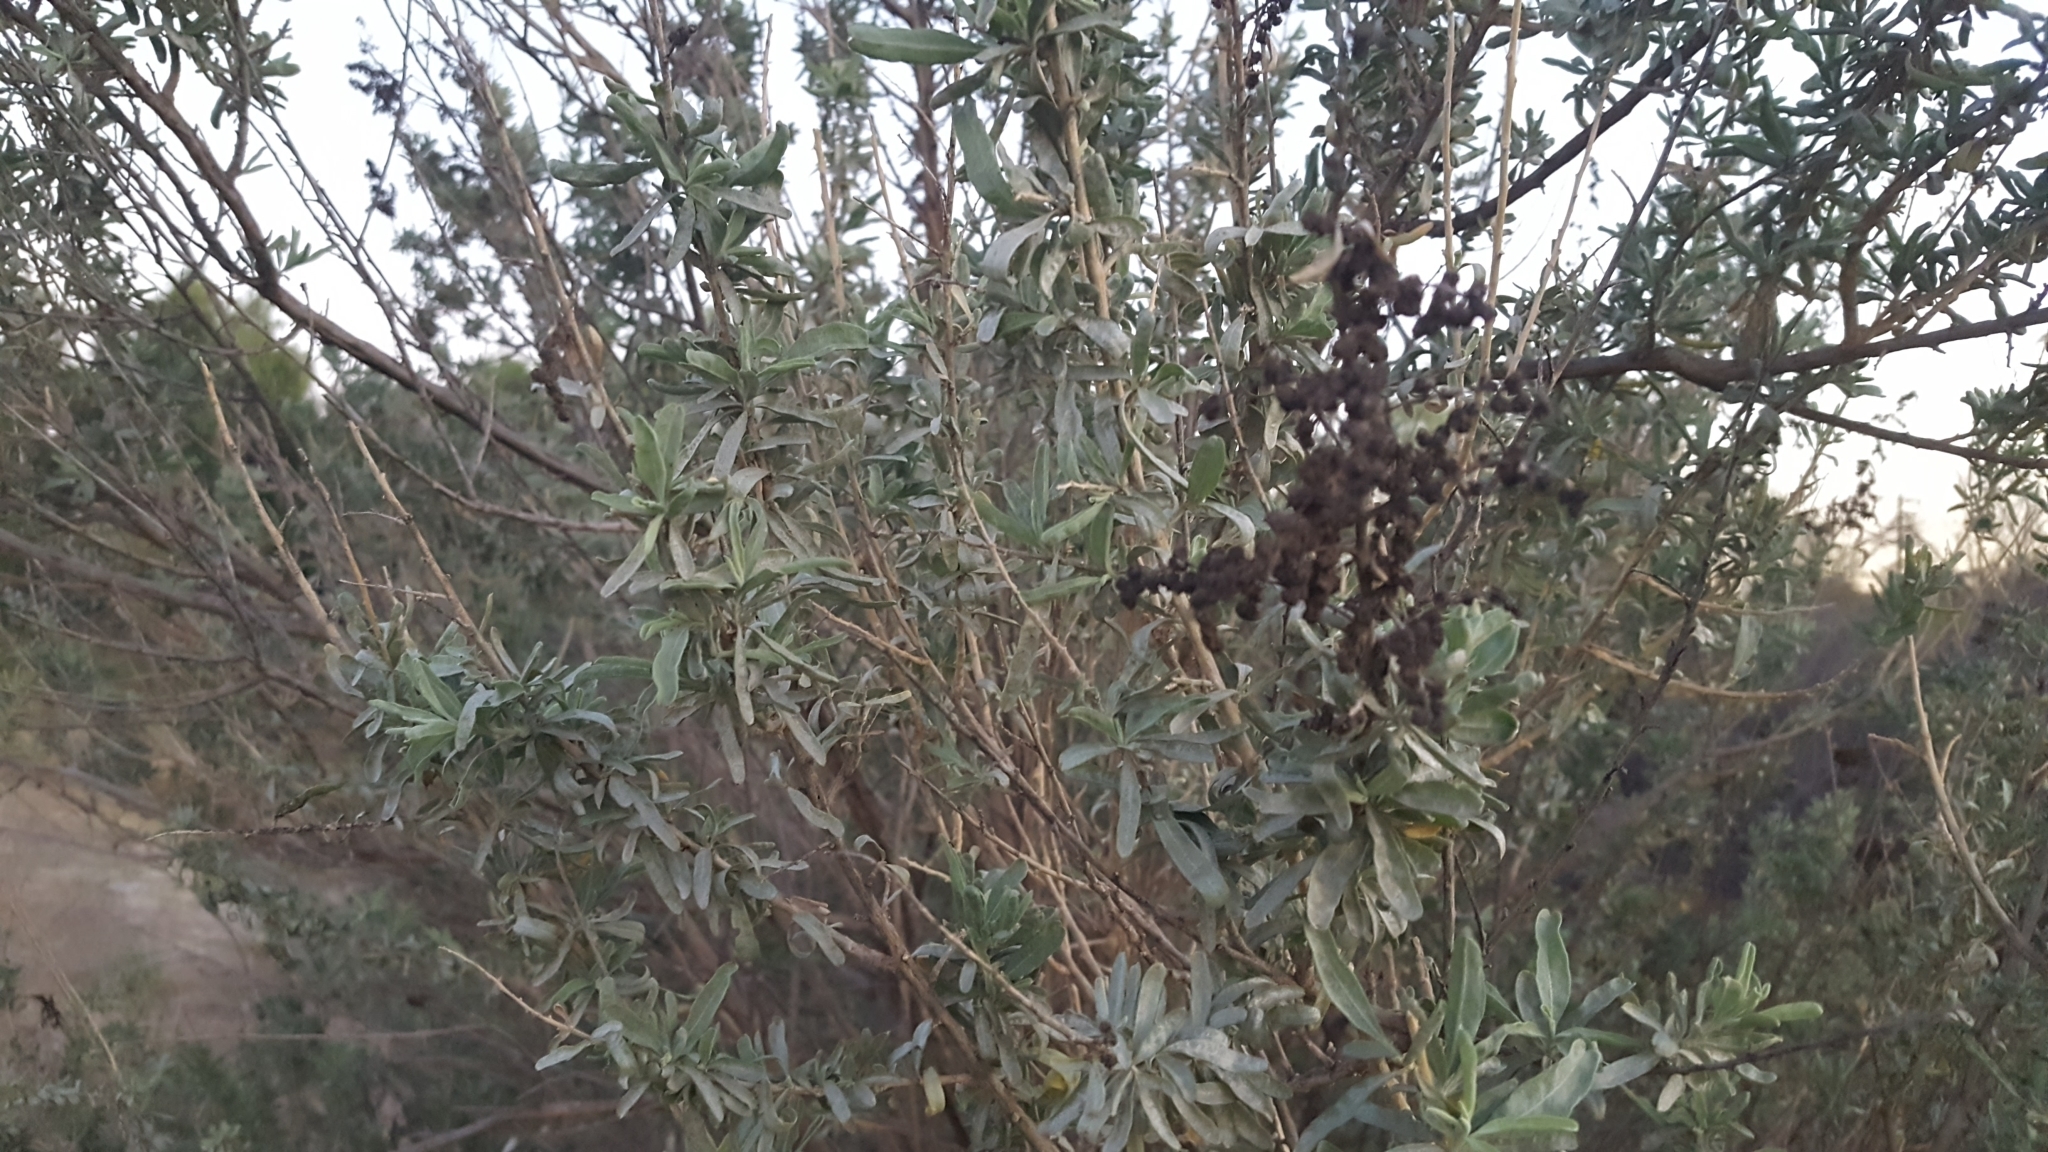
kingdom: Plantae
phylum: Tracheophyta
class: Magnoliopsida
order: Caryophyllales
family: Amaranthaceae
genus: Atriplex
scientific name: Atriplex canescens
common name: Four-wing saltbush
